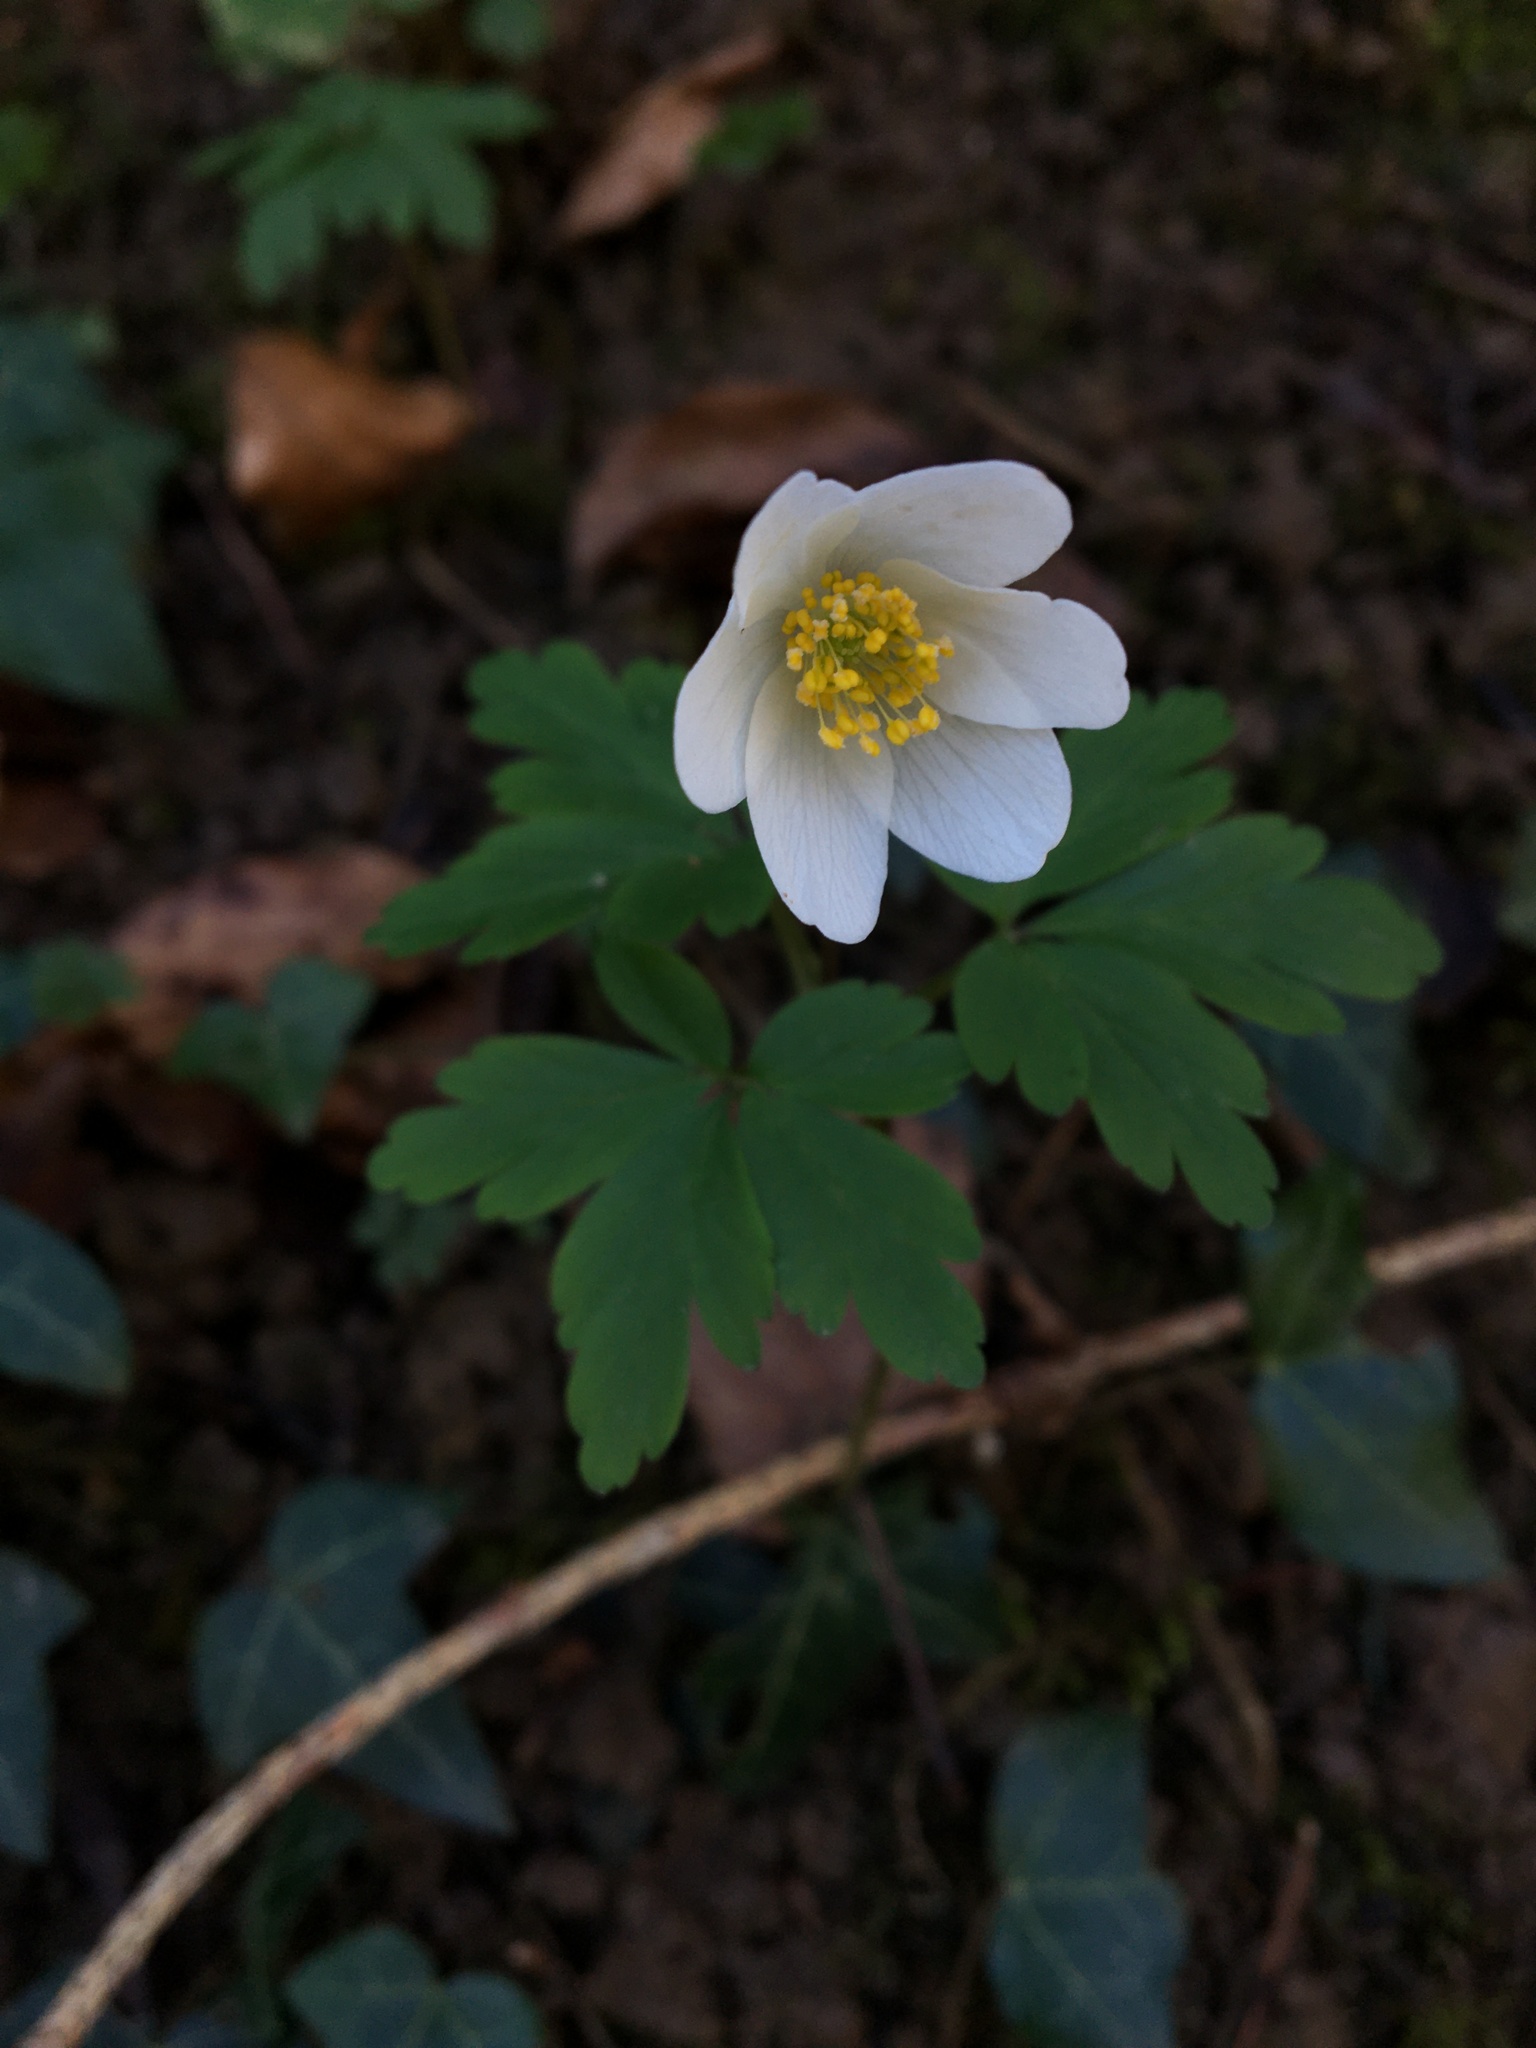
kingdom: Plantae
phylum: Tracheophyta
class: Magnoliopsida
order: Ranunculales
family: Ranunculaceae
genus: Anemone
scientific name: Anemone nemorosa
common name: Wood anemone
